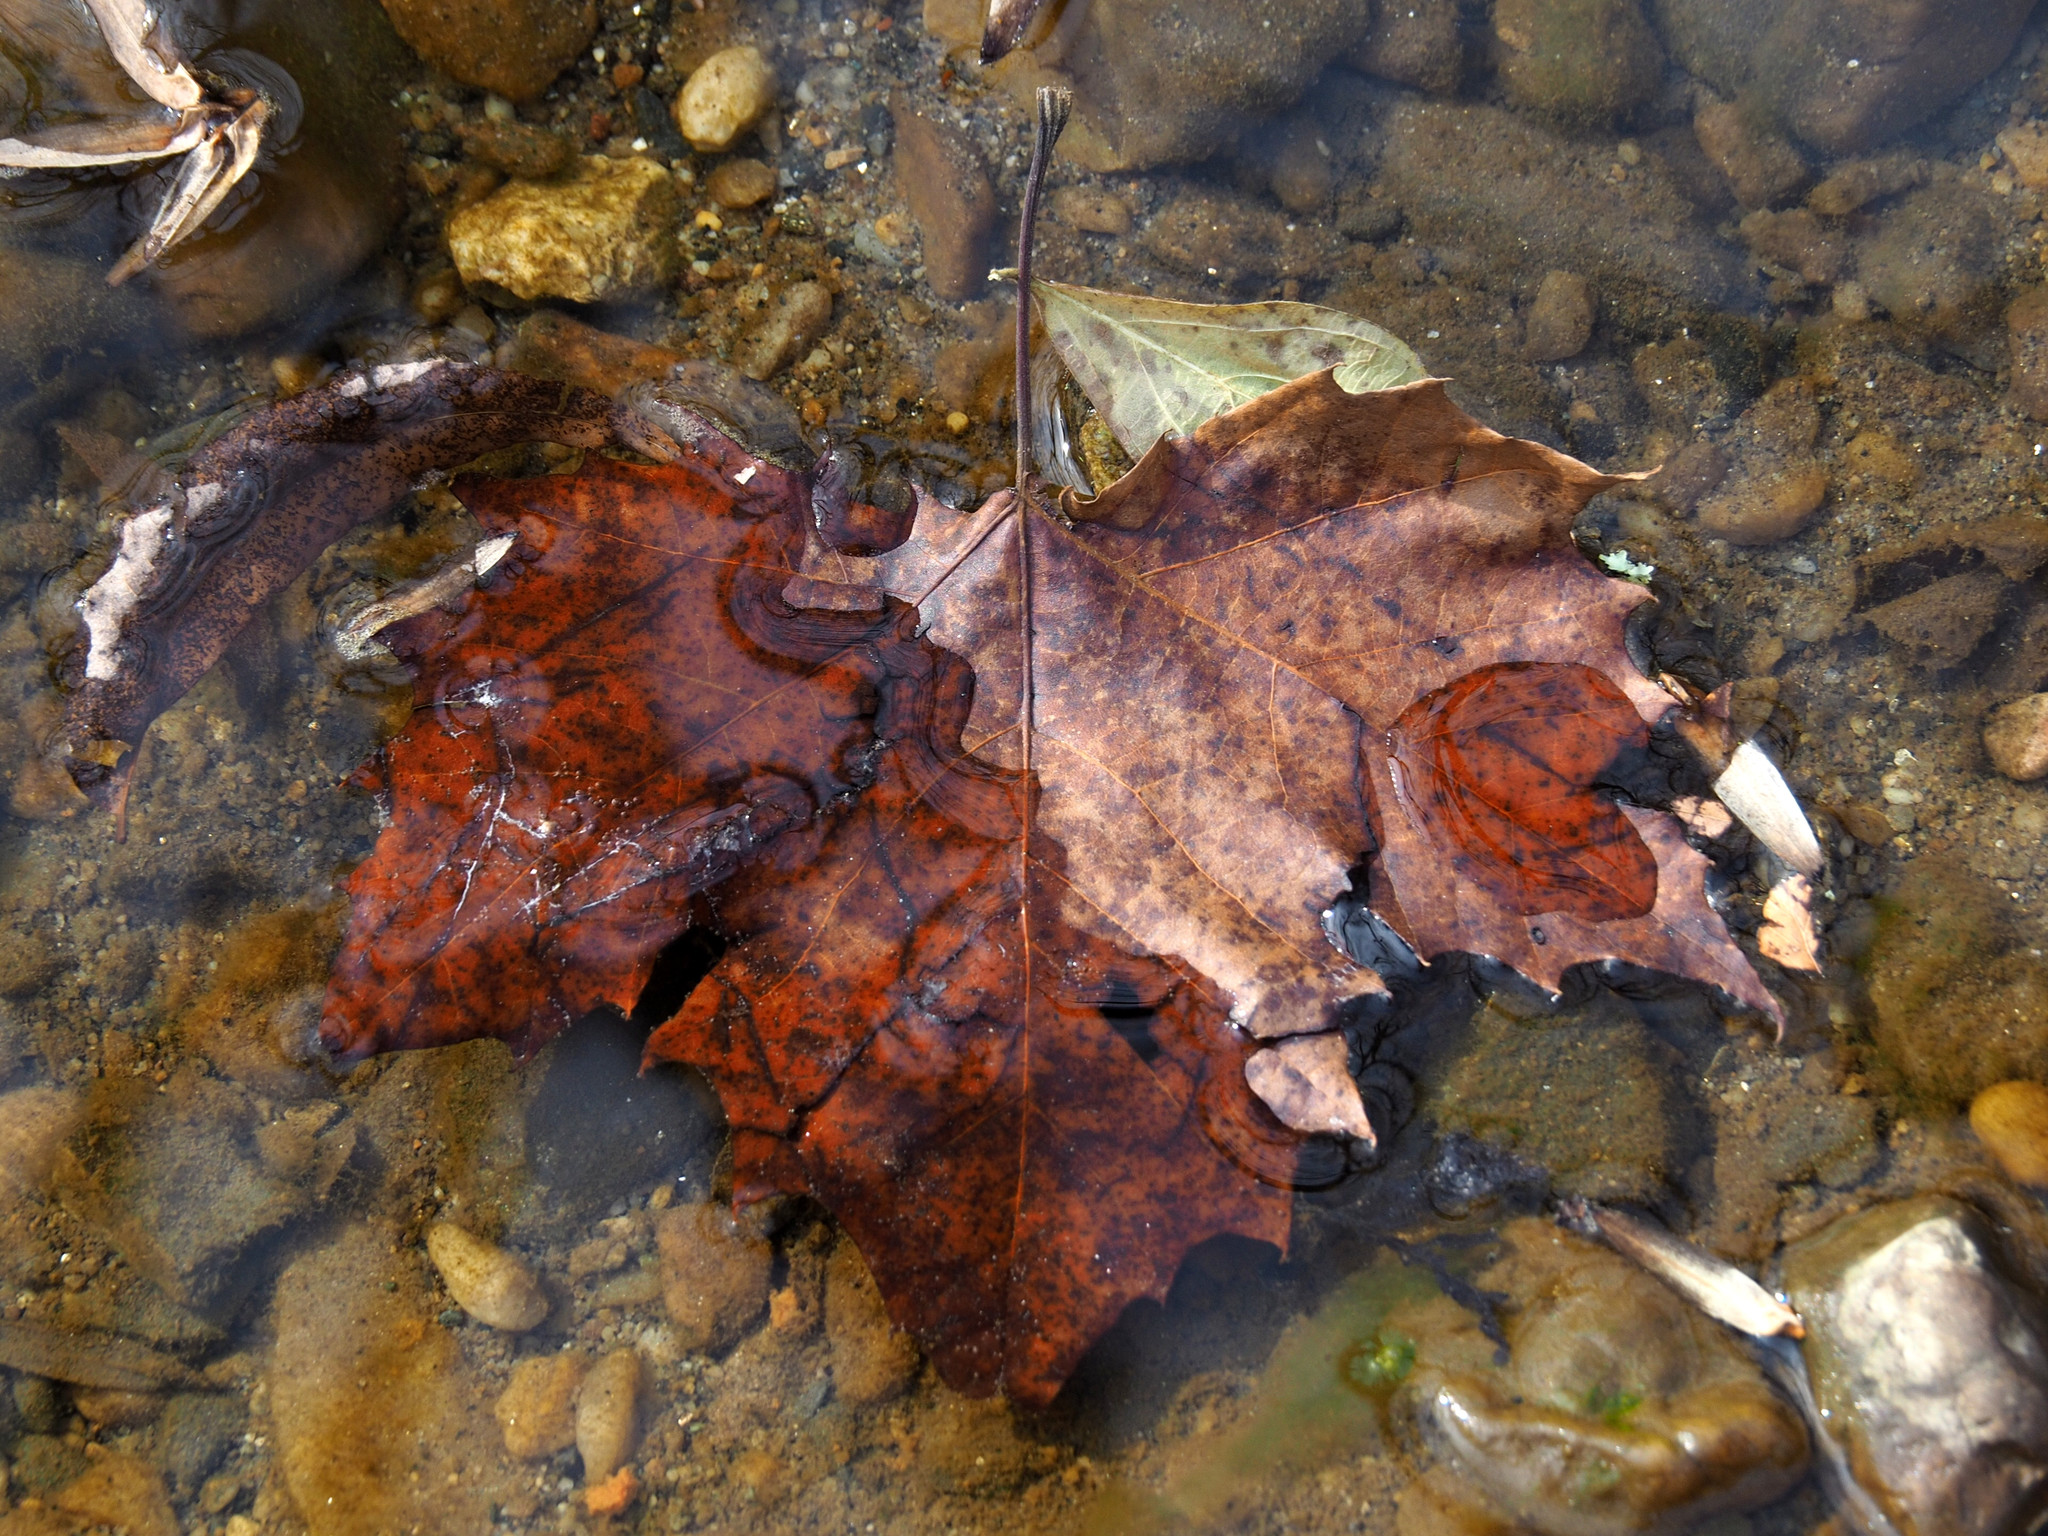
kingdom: Plantae
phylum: Tracheophyta
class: Magnoliopsida
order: Proteales
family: Platanaceae
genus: Platanus
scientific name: Platanus occidentalis
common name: American sycamore
